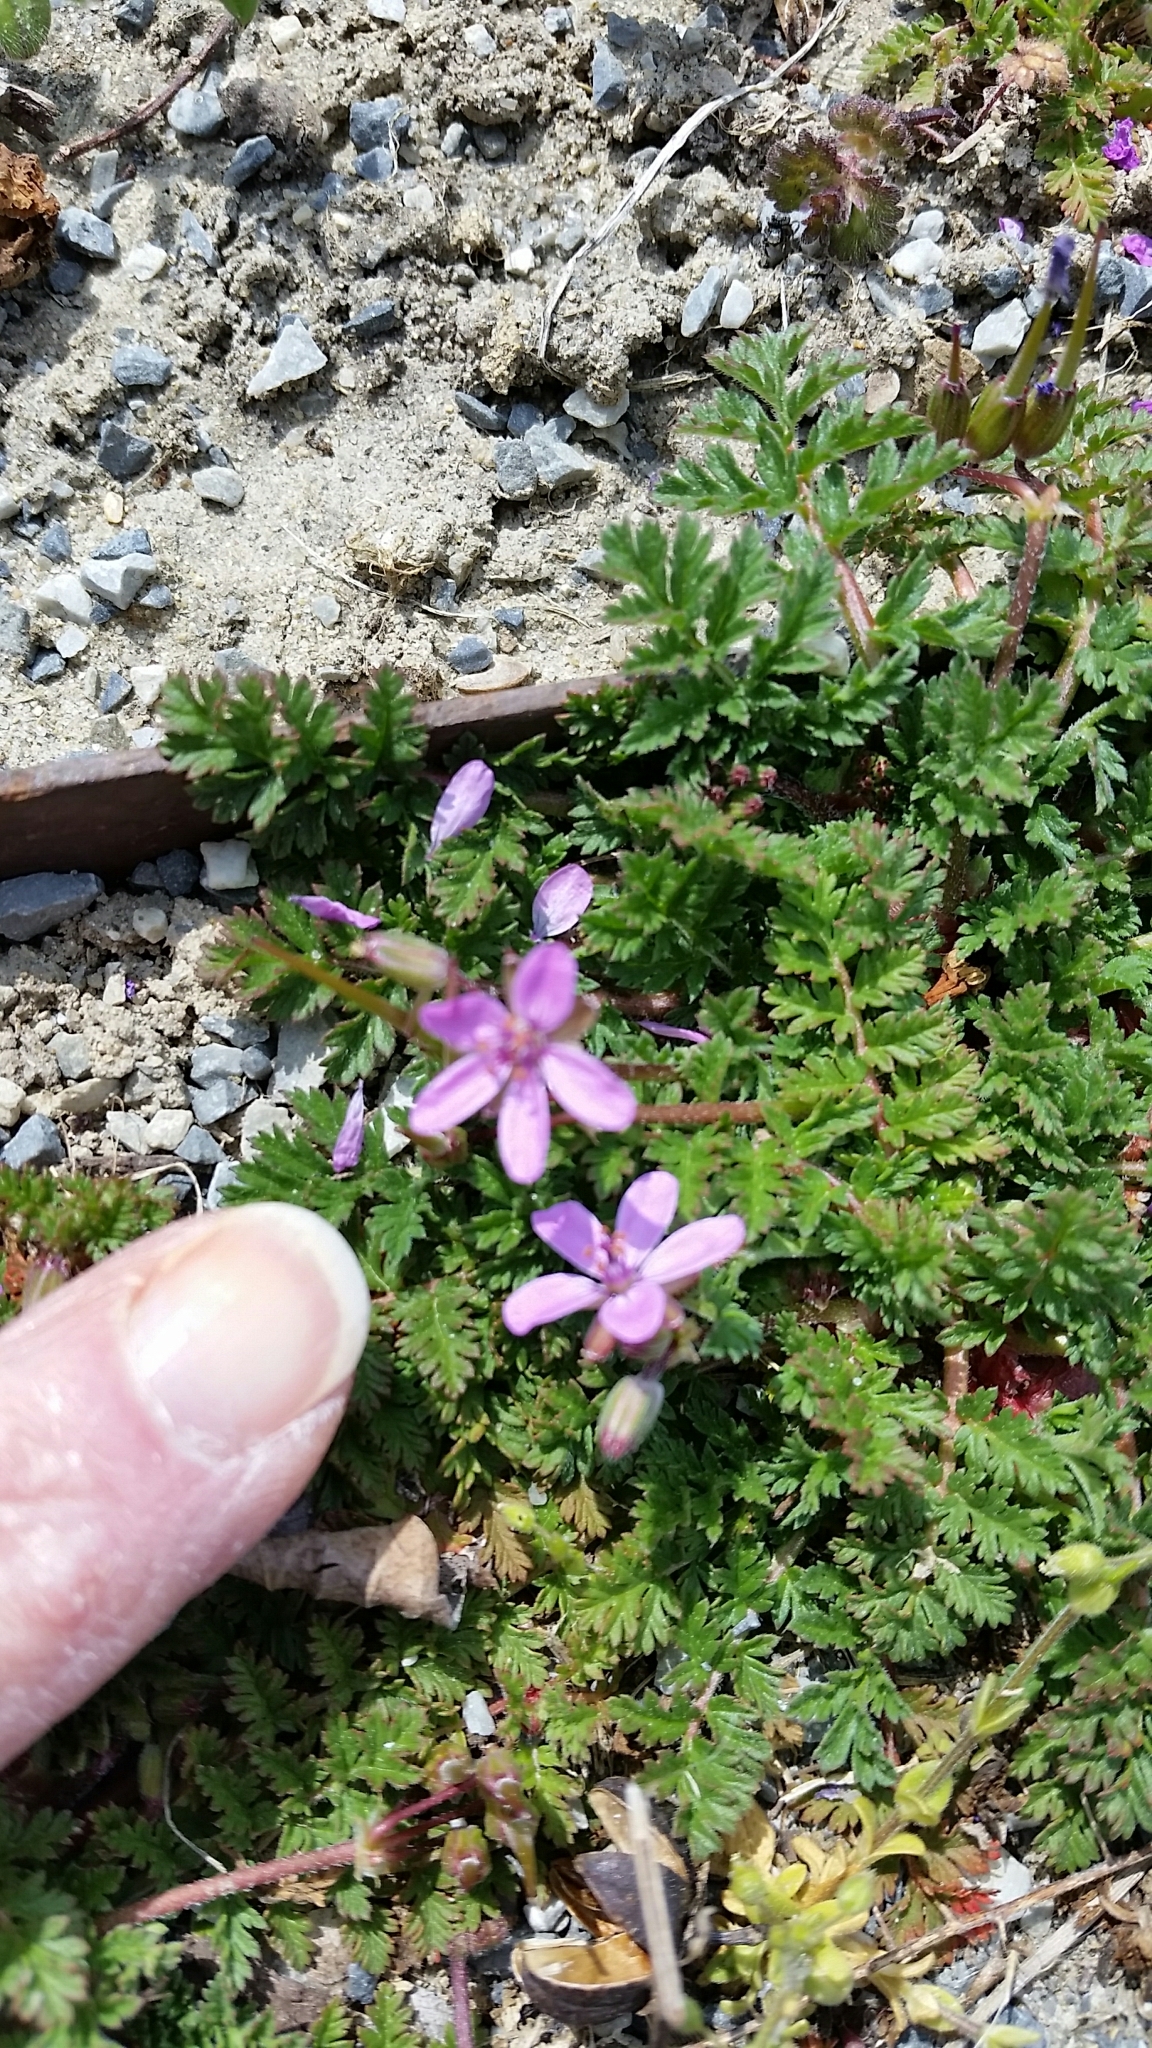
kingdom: Plantae
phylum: Tracheophyta
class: Magnoliopsida
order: Geraniales
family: Geraniaceae
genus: Erodium
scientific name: Erodium cicutarium
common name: Common stork's-bill
